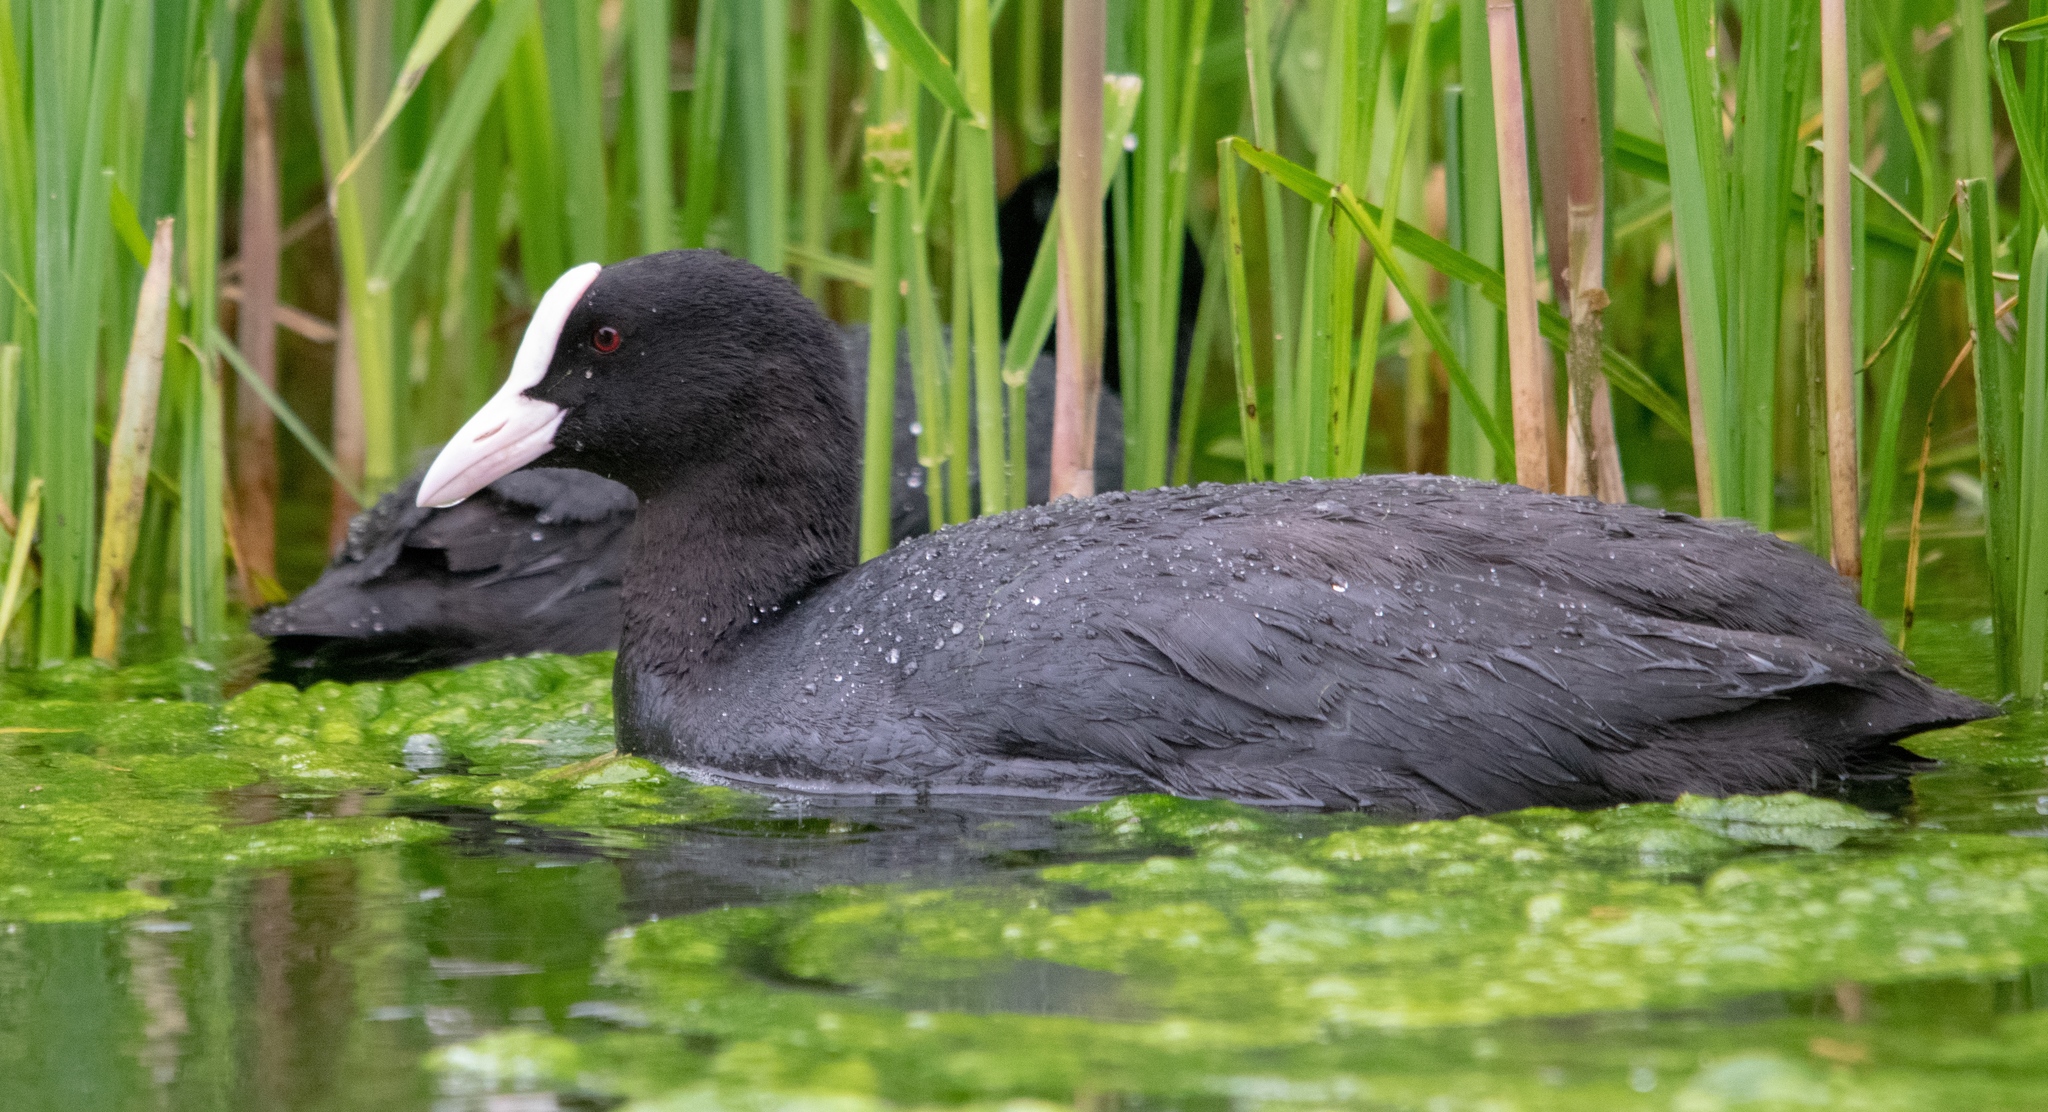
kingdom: Animalia
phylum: Chordata
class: Aves
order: Gruiformes
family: Rallidae
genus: Fulica
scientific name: Fulica atra
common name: Eurasian coot
